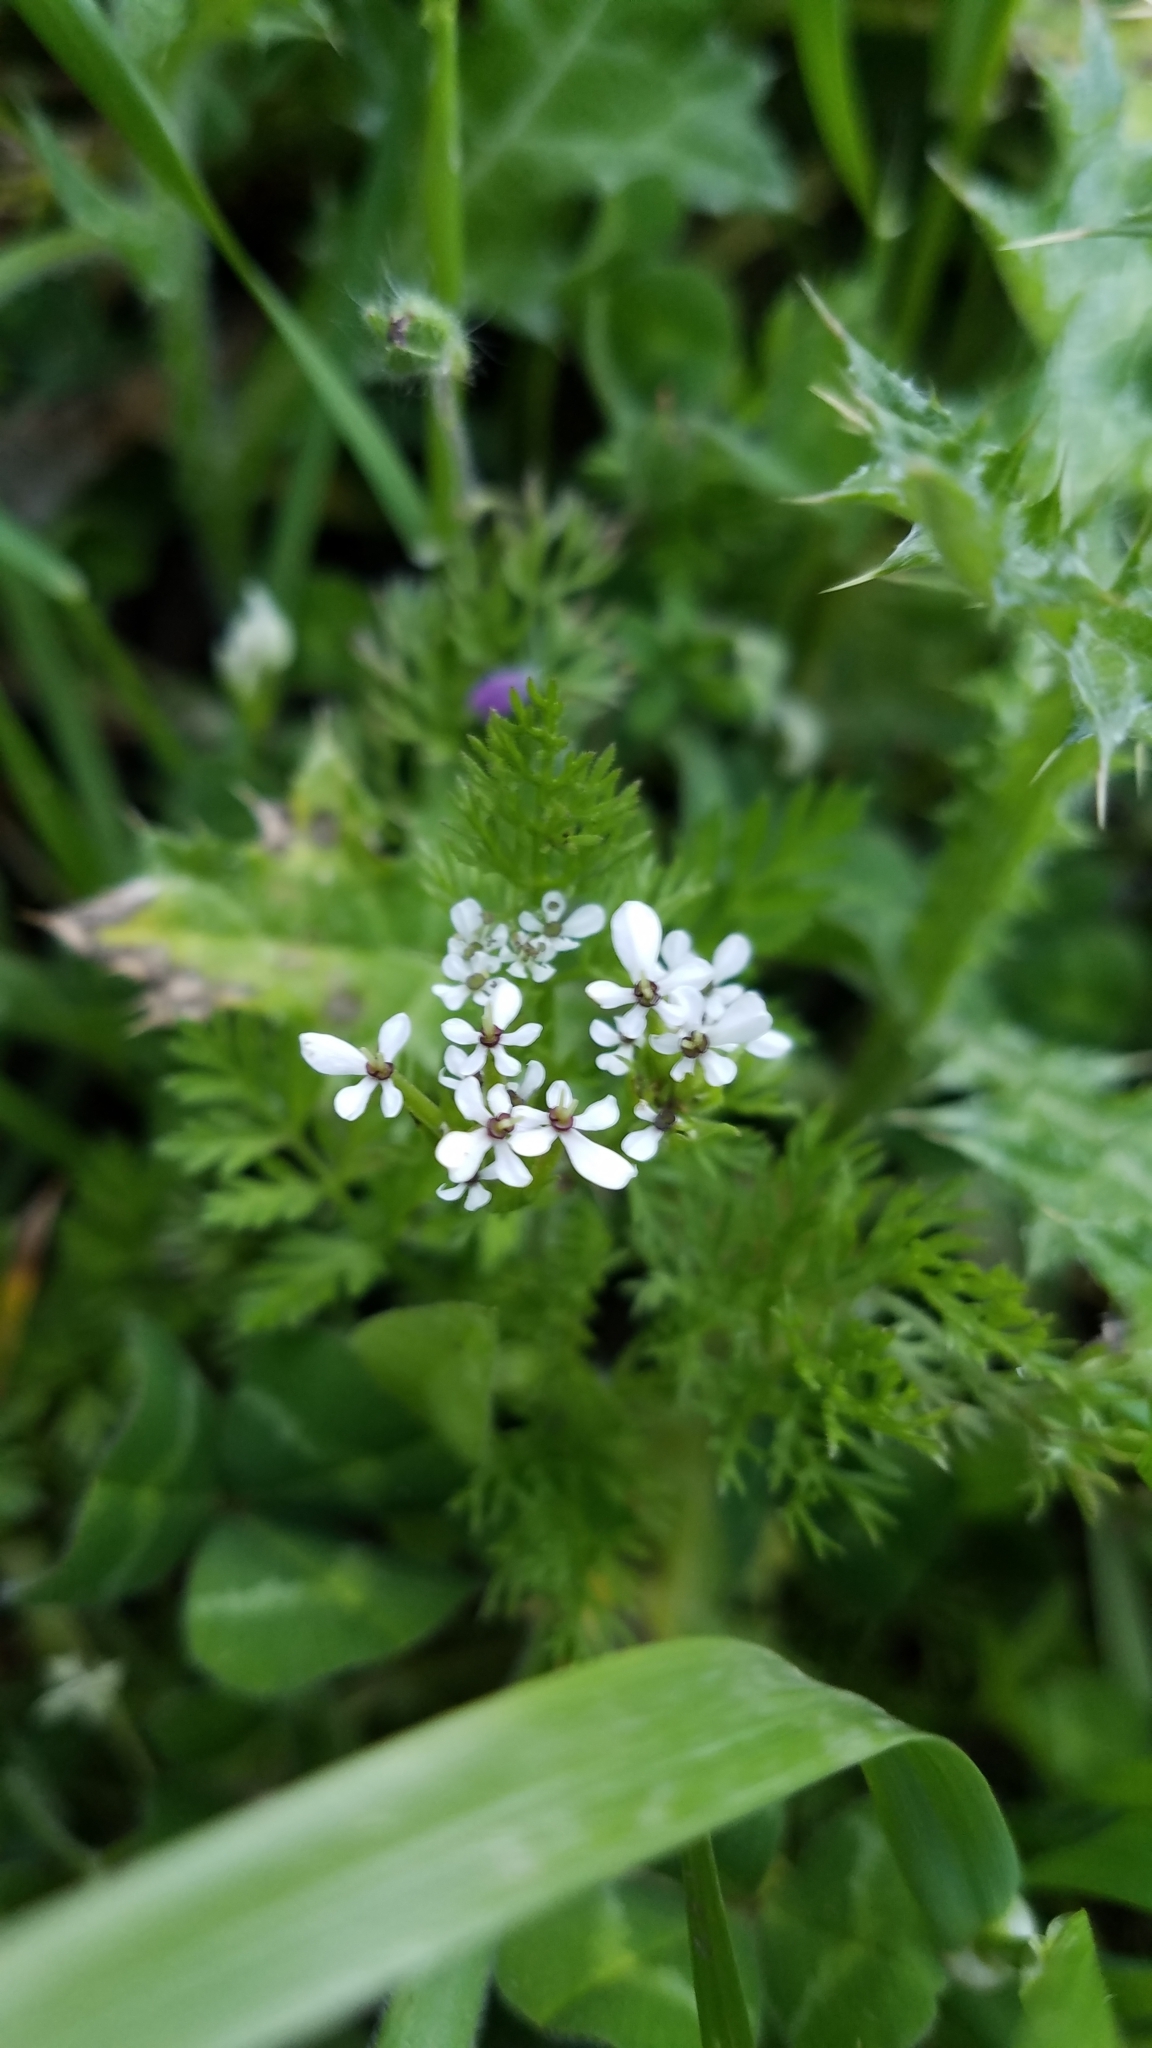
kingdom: Plantae
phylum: Tracheophyta
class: Magnoliopsida
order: Apiales
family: Apiaceae
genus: Scandix
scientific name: Scandix pecten-veneris
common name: Shepherd's-needle
